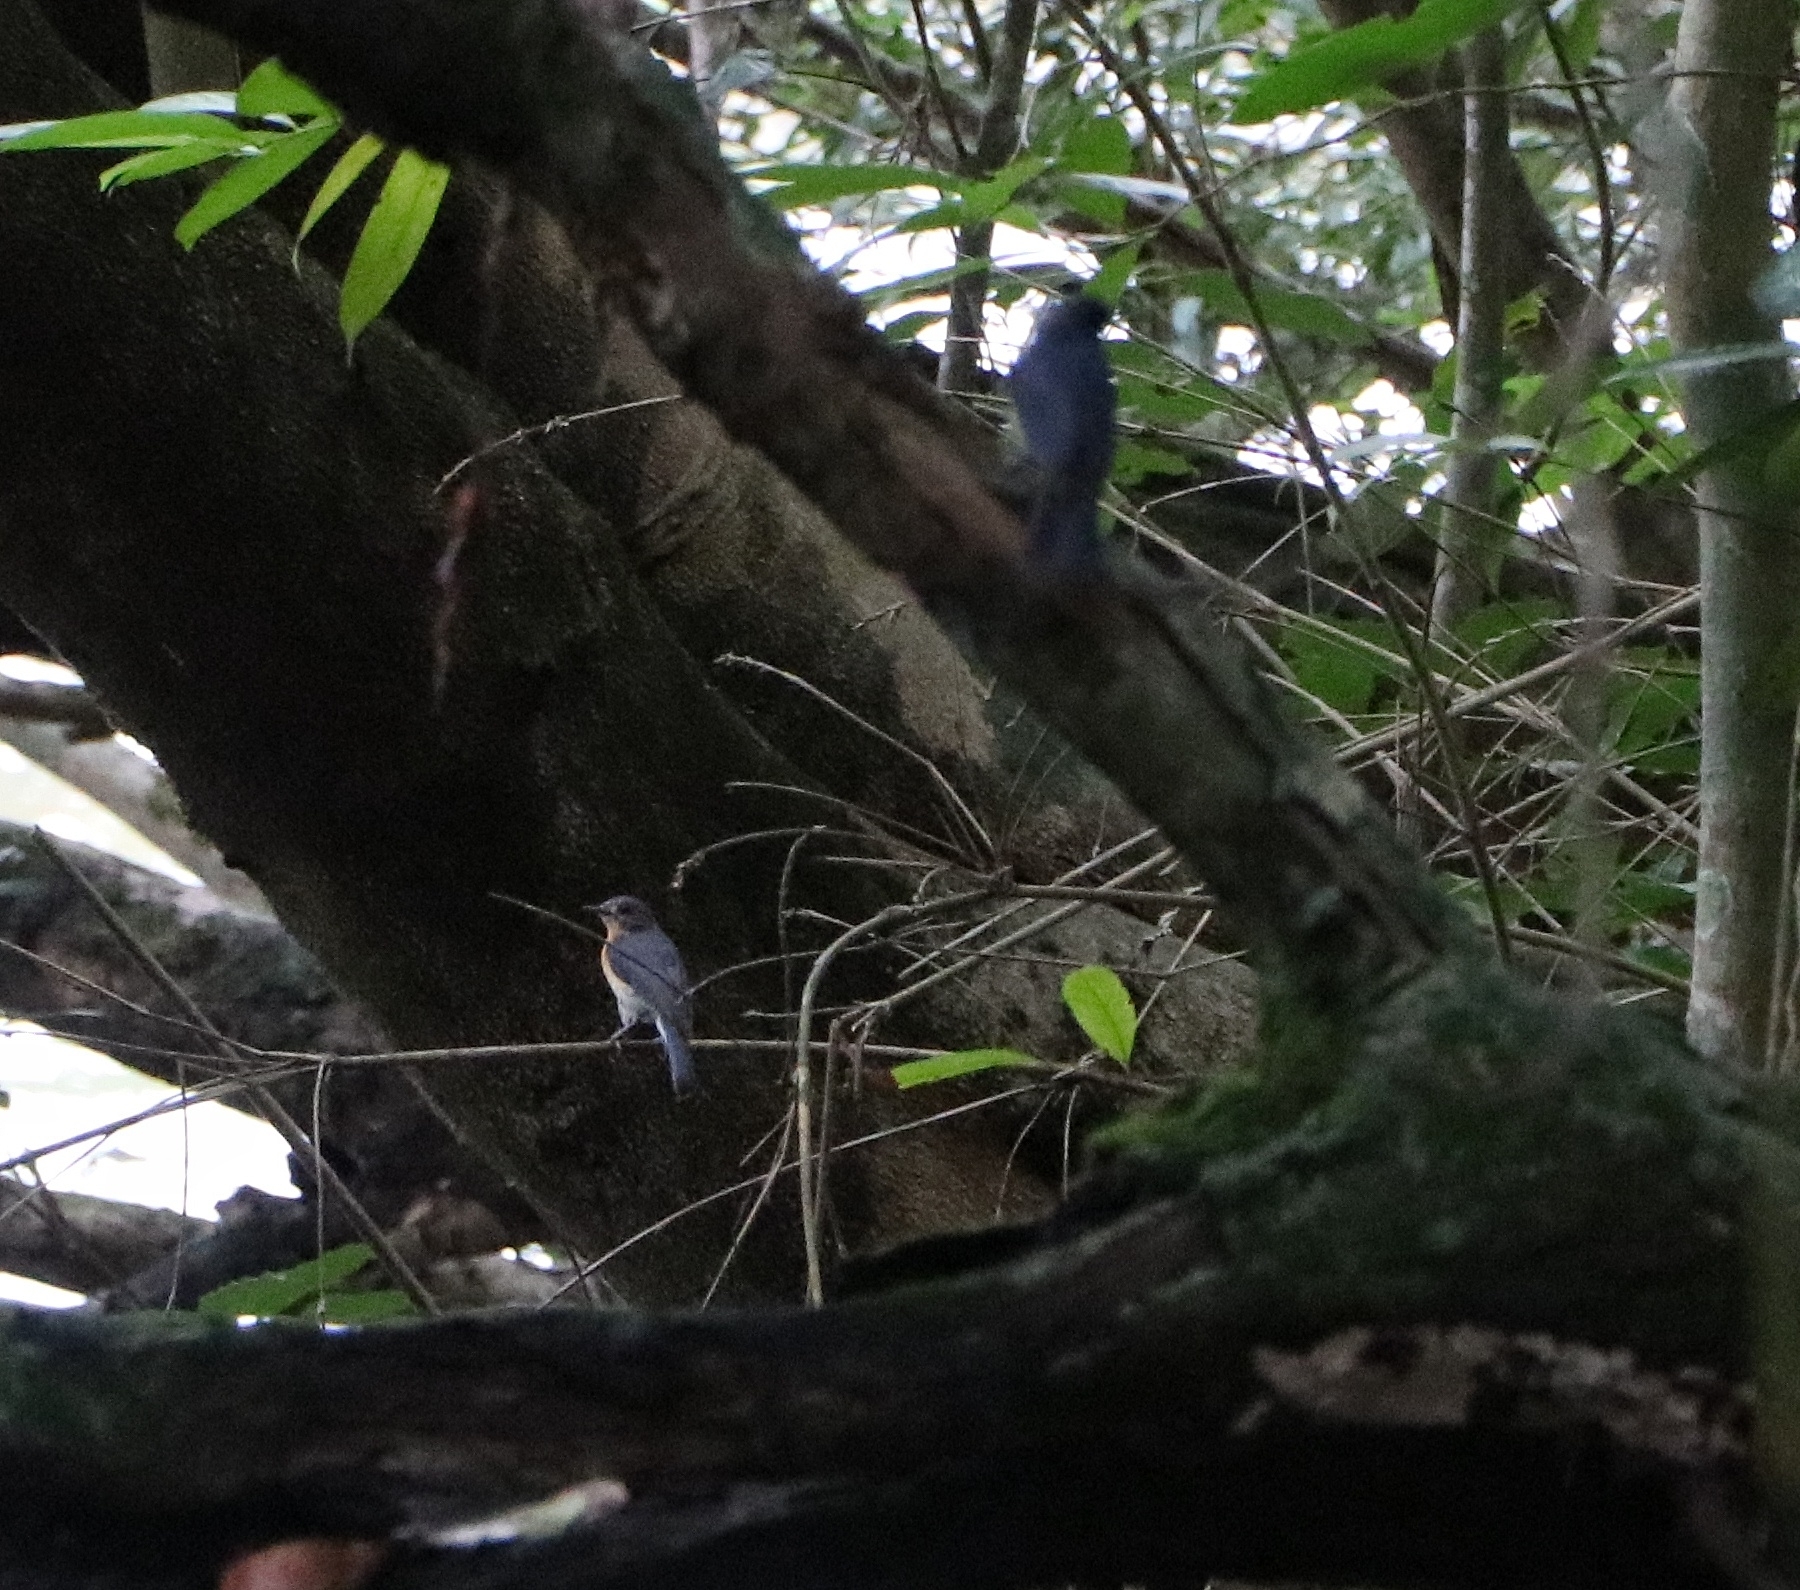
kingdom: Animalia
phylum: Chordata
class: Aves
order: Passeriformes
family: Muscicapidae
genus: Cyornis
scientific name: Cyornis tickelliae
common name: Tickell's blue flycatcher
